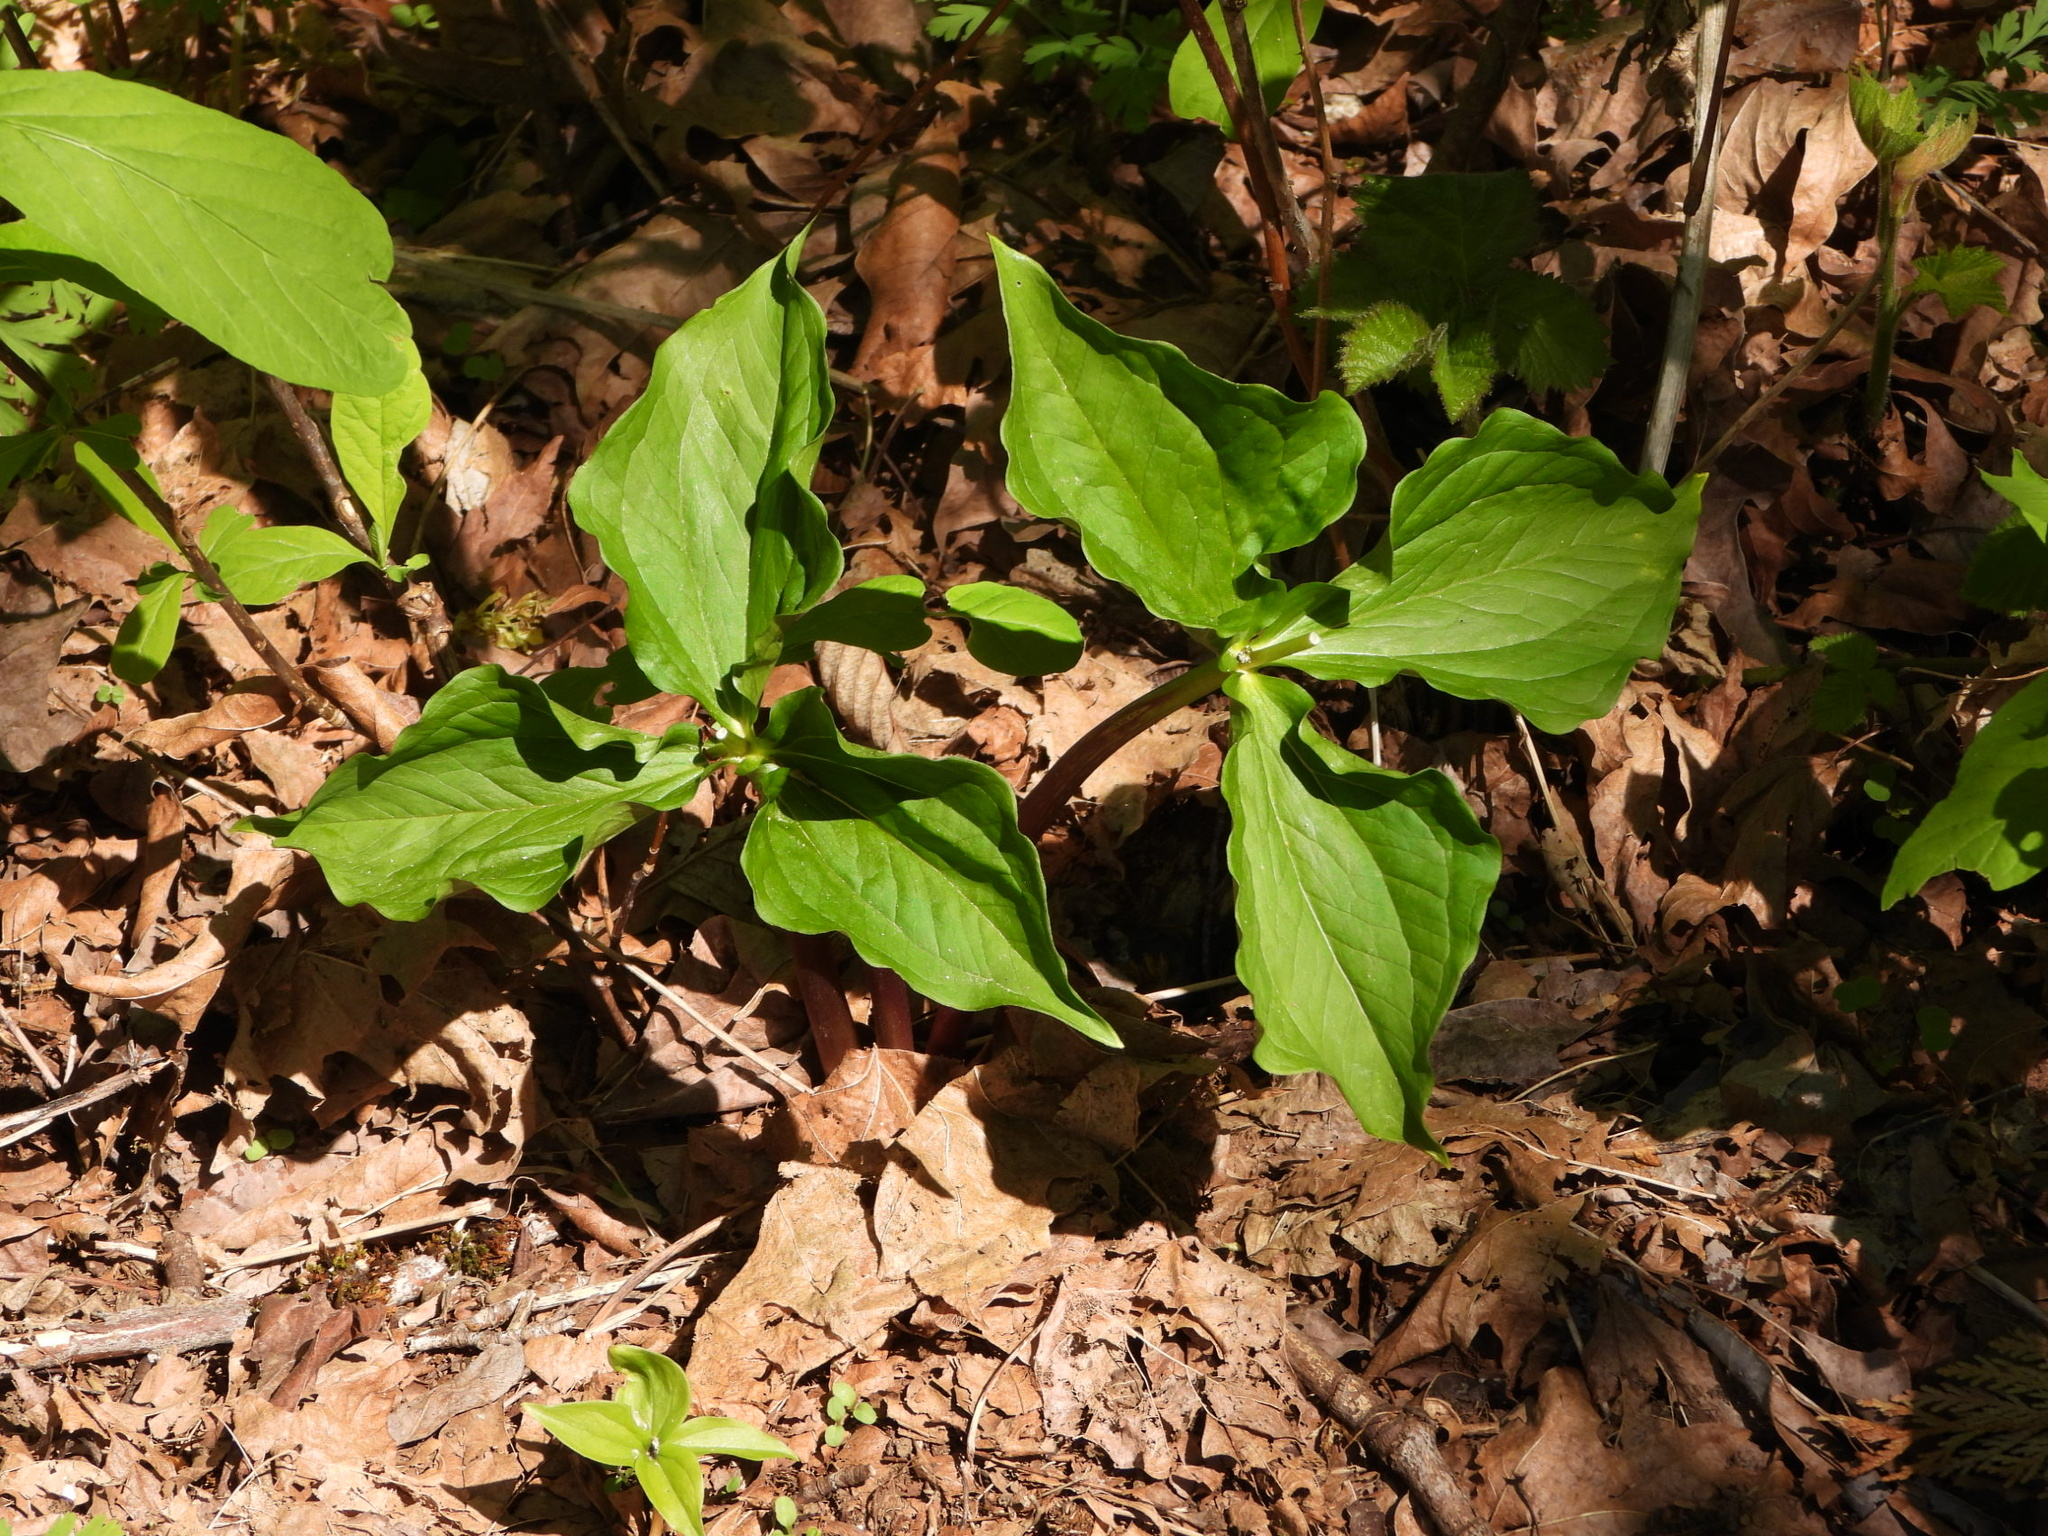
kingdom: Plantae
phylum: Tracheophyta
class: Liliopsida
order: Liliales
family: Melanthiaceae
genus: Trillium
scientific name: Trillium ovatum
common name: Pacific trillium
